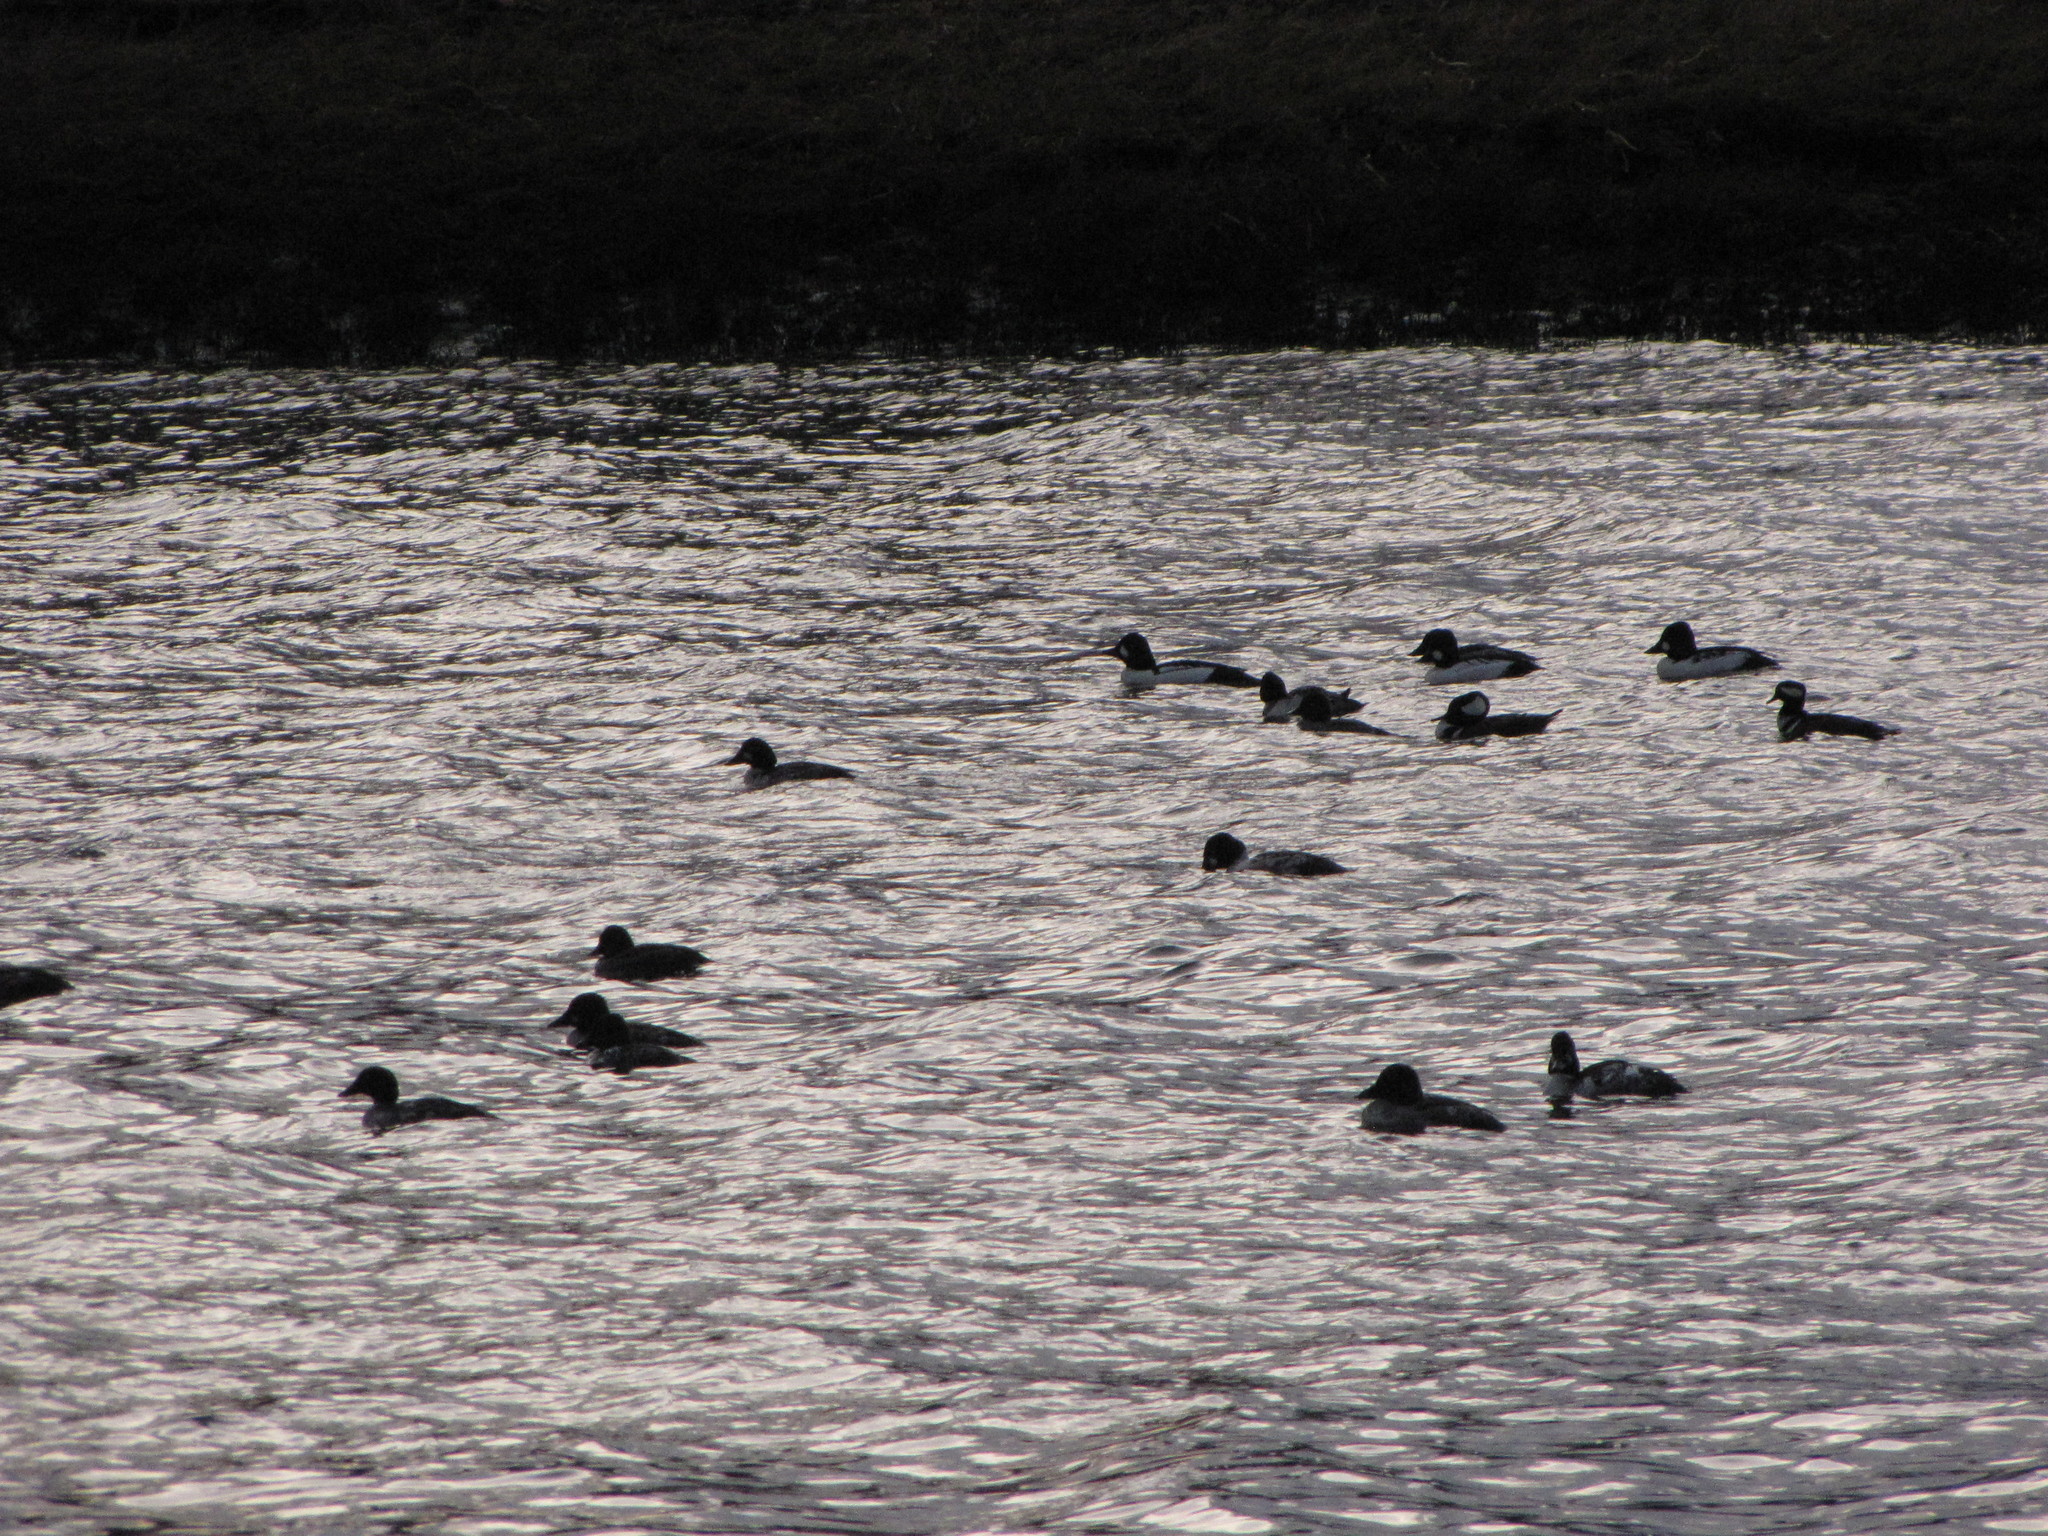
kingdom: Animalia
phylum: Chordata
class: Aves
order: Anseriformes
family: Anatidae
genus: Bucephala
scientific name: Bucephala clangula
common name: Common goldeneye
